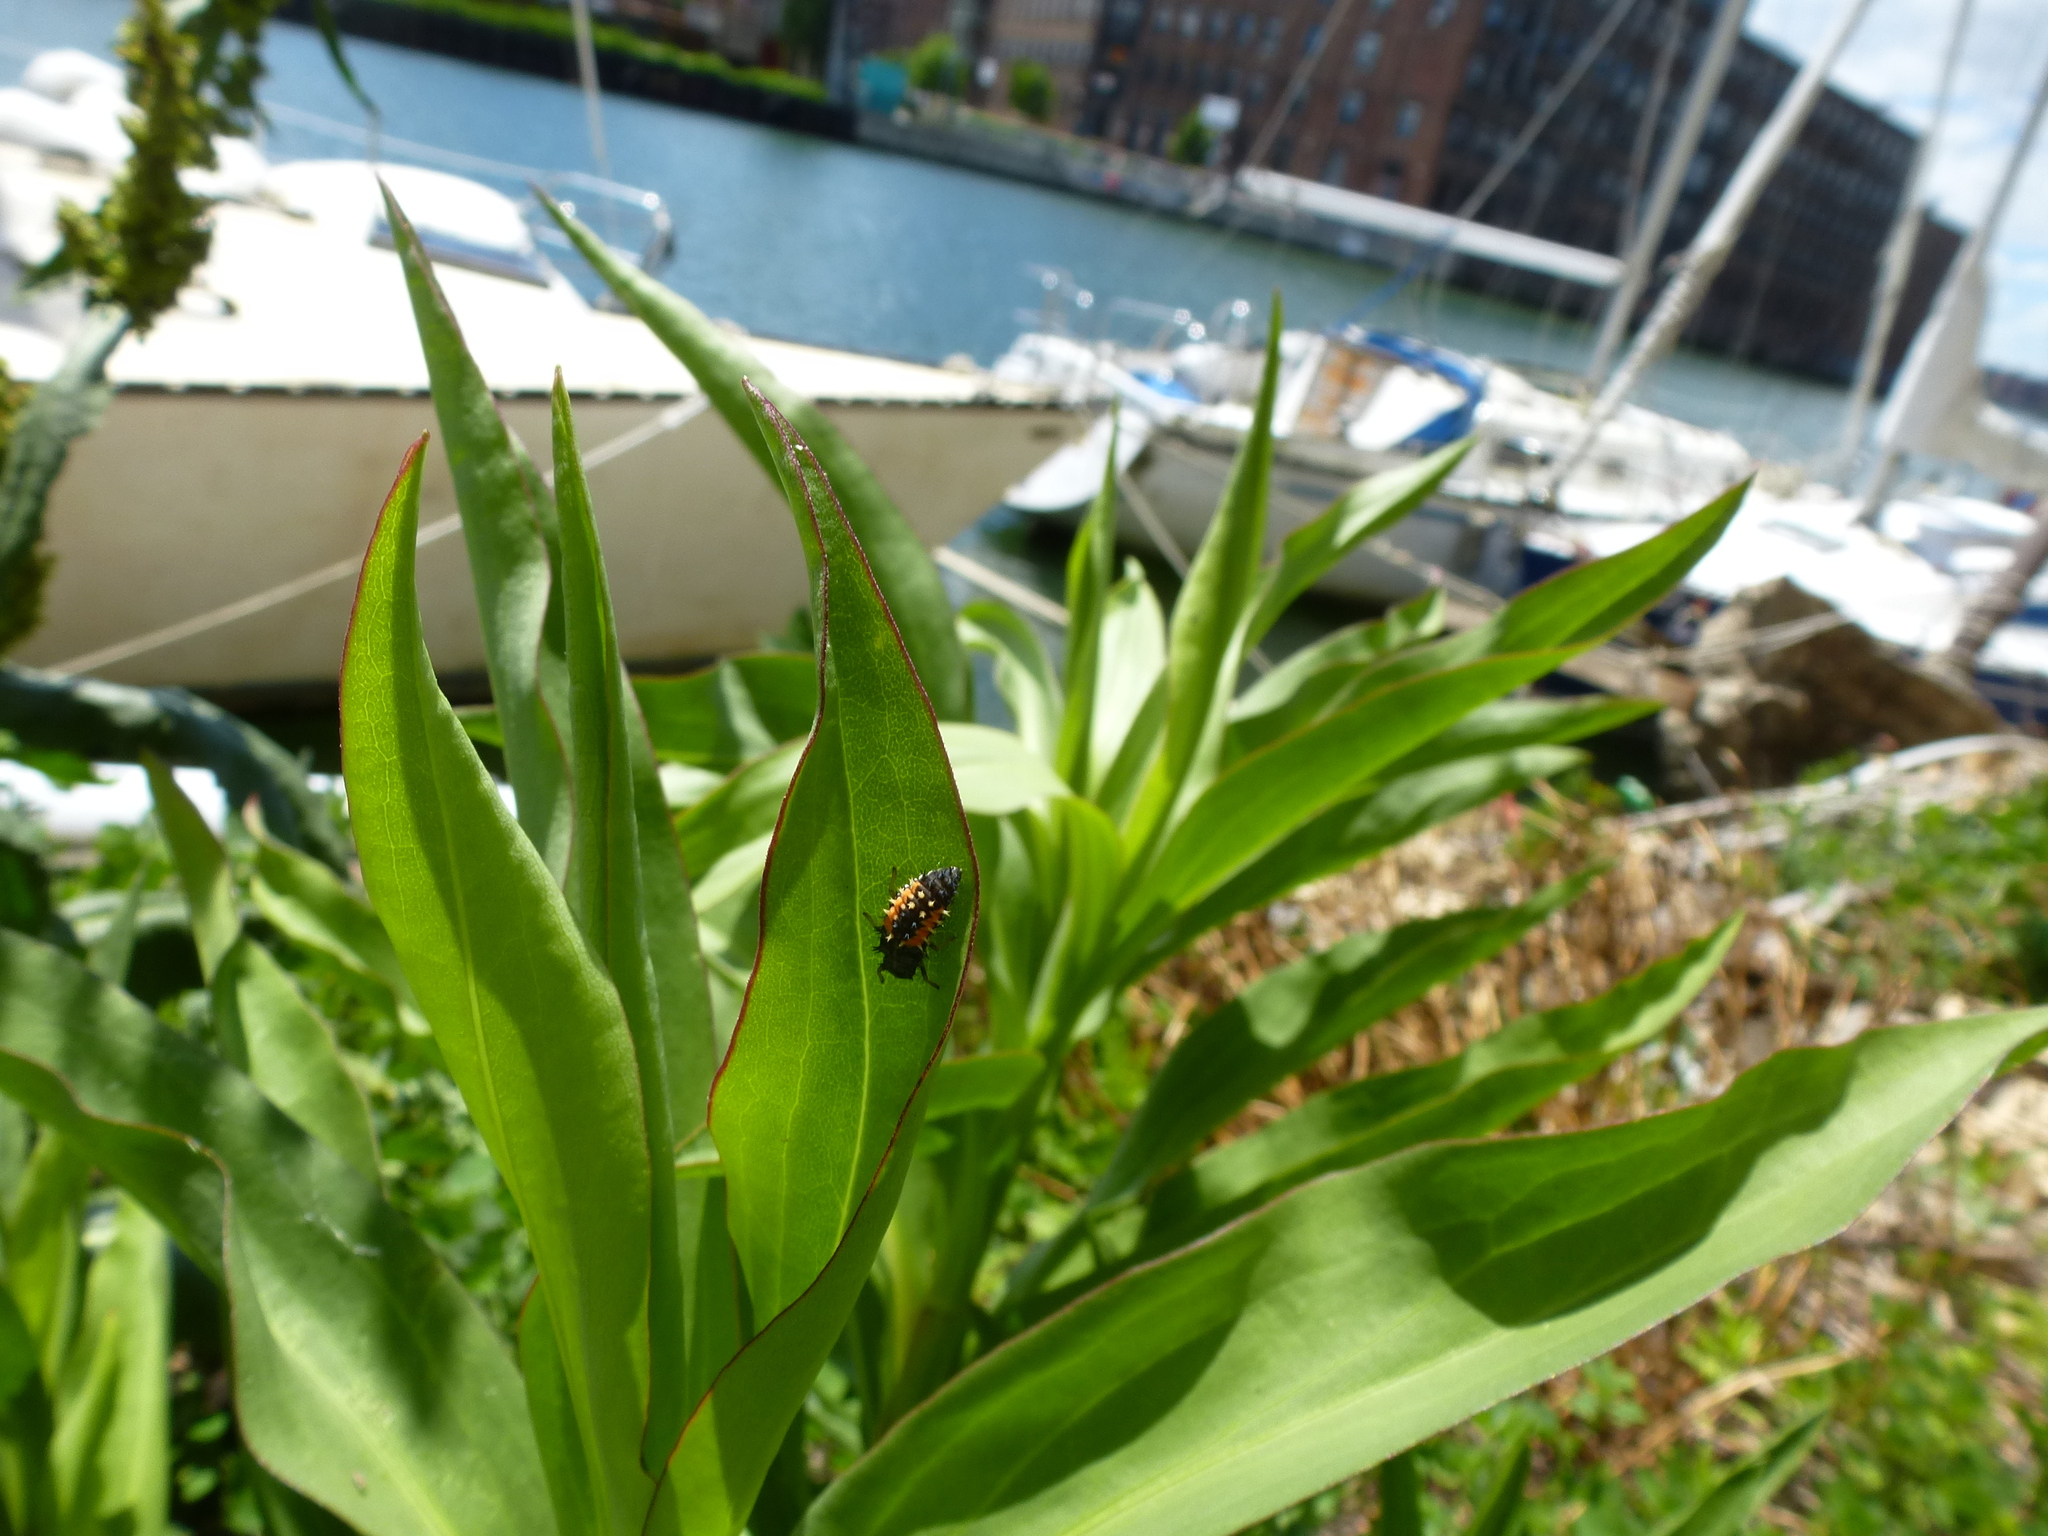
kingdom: Animalia
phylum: Arthropoda
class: Insecta
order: Coleoptera
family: Coccinellidae
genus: Harmonia
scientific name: Harmonia axyridis
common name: Harlequin ladybird
